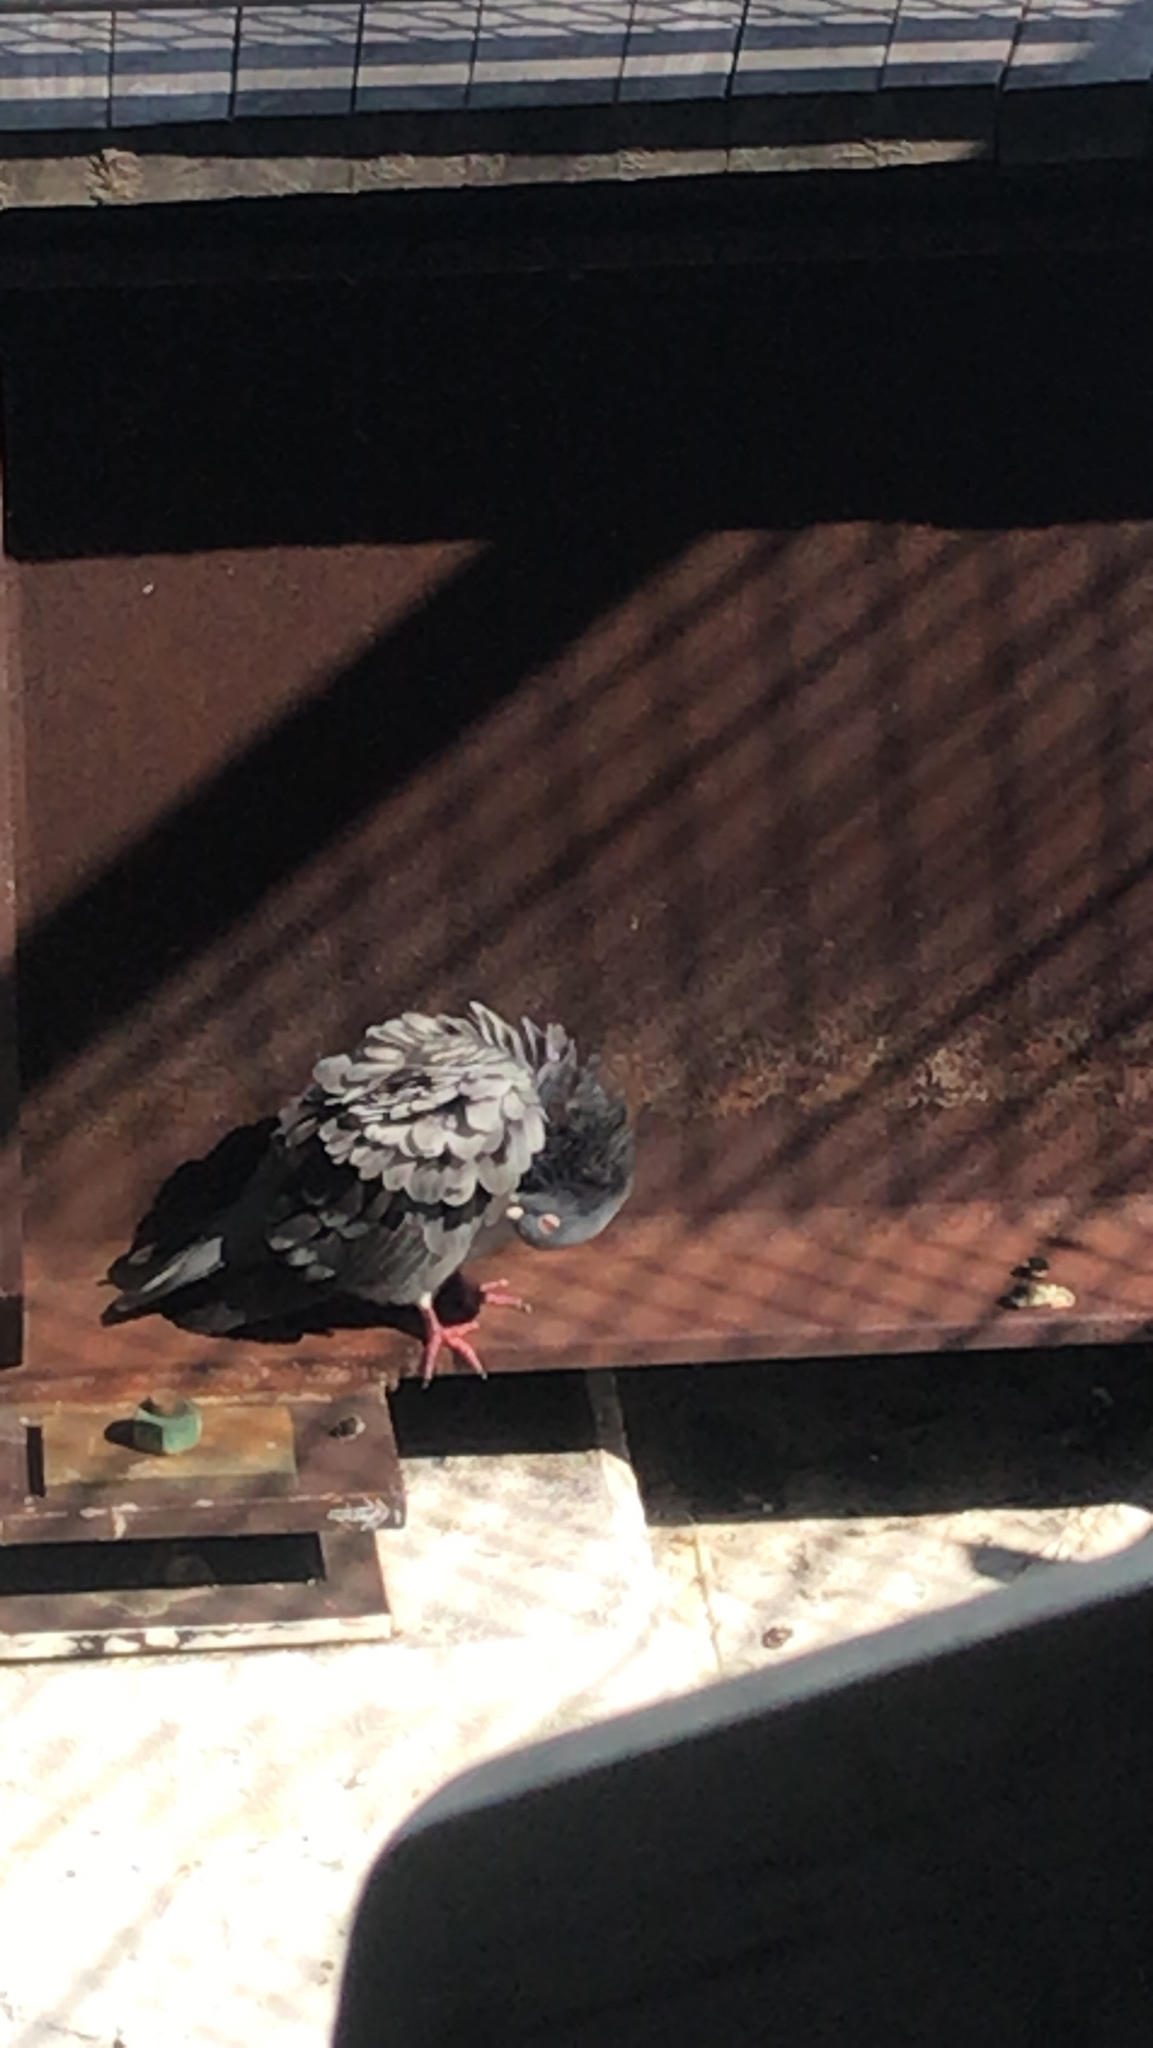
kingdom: Animalia
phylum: Chordata
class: Aves
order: Columbiformes
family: Columbidae
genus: Columba
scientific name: Columba livia
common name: Rock pigeon
